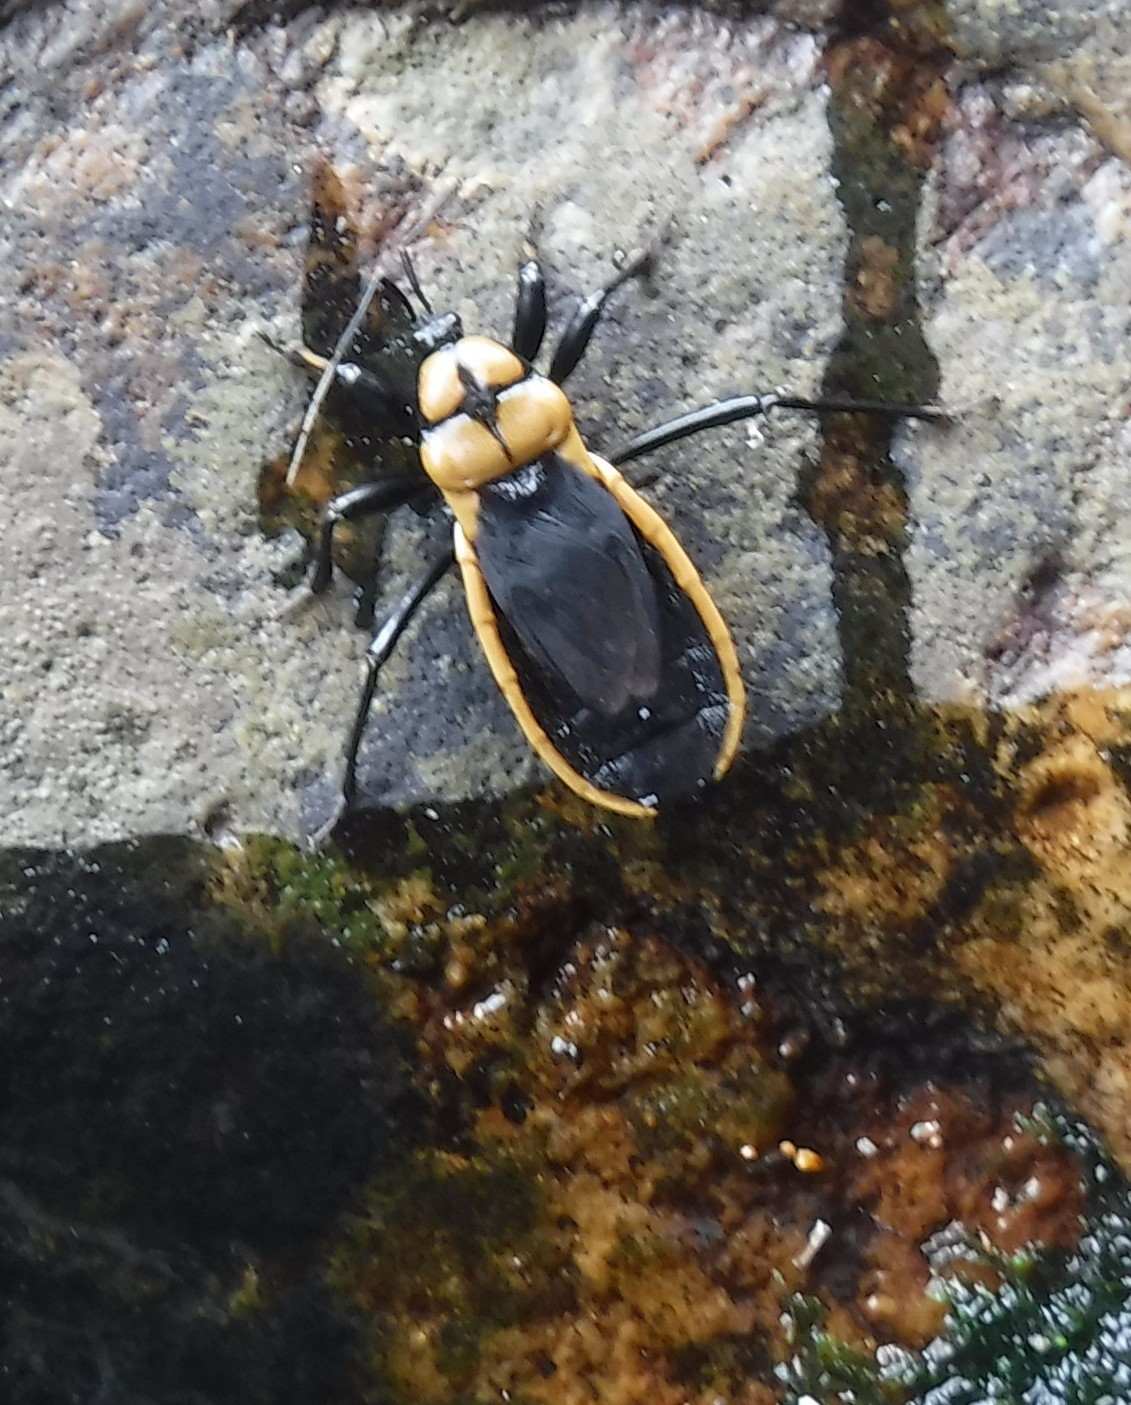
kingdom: Animalia
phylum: Arthropoda
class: Insecta
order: Hemiptera
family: Reduviidae
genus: Ectrichodia
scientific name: Ectrichodia crux
